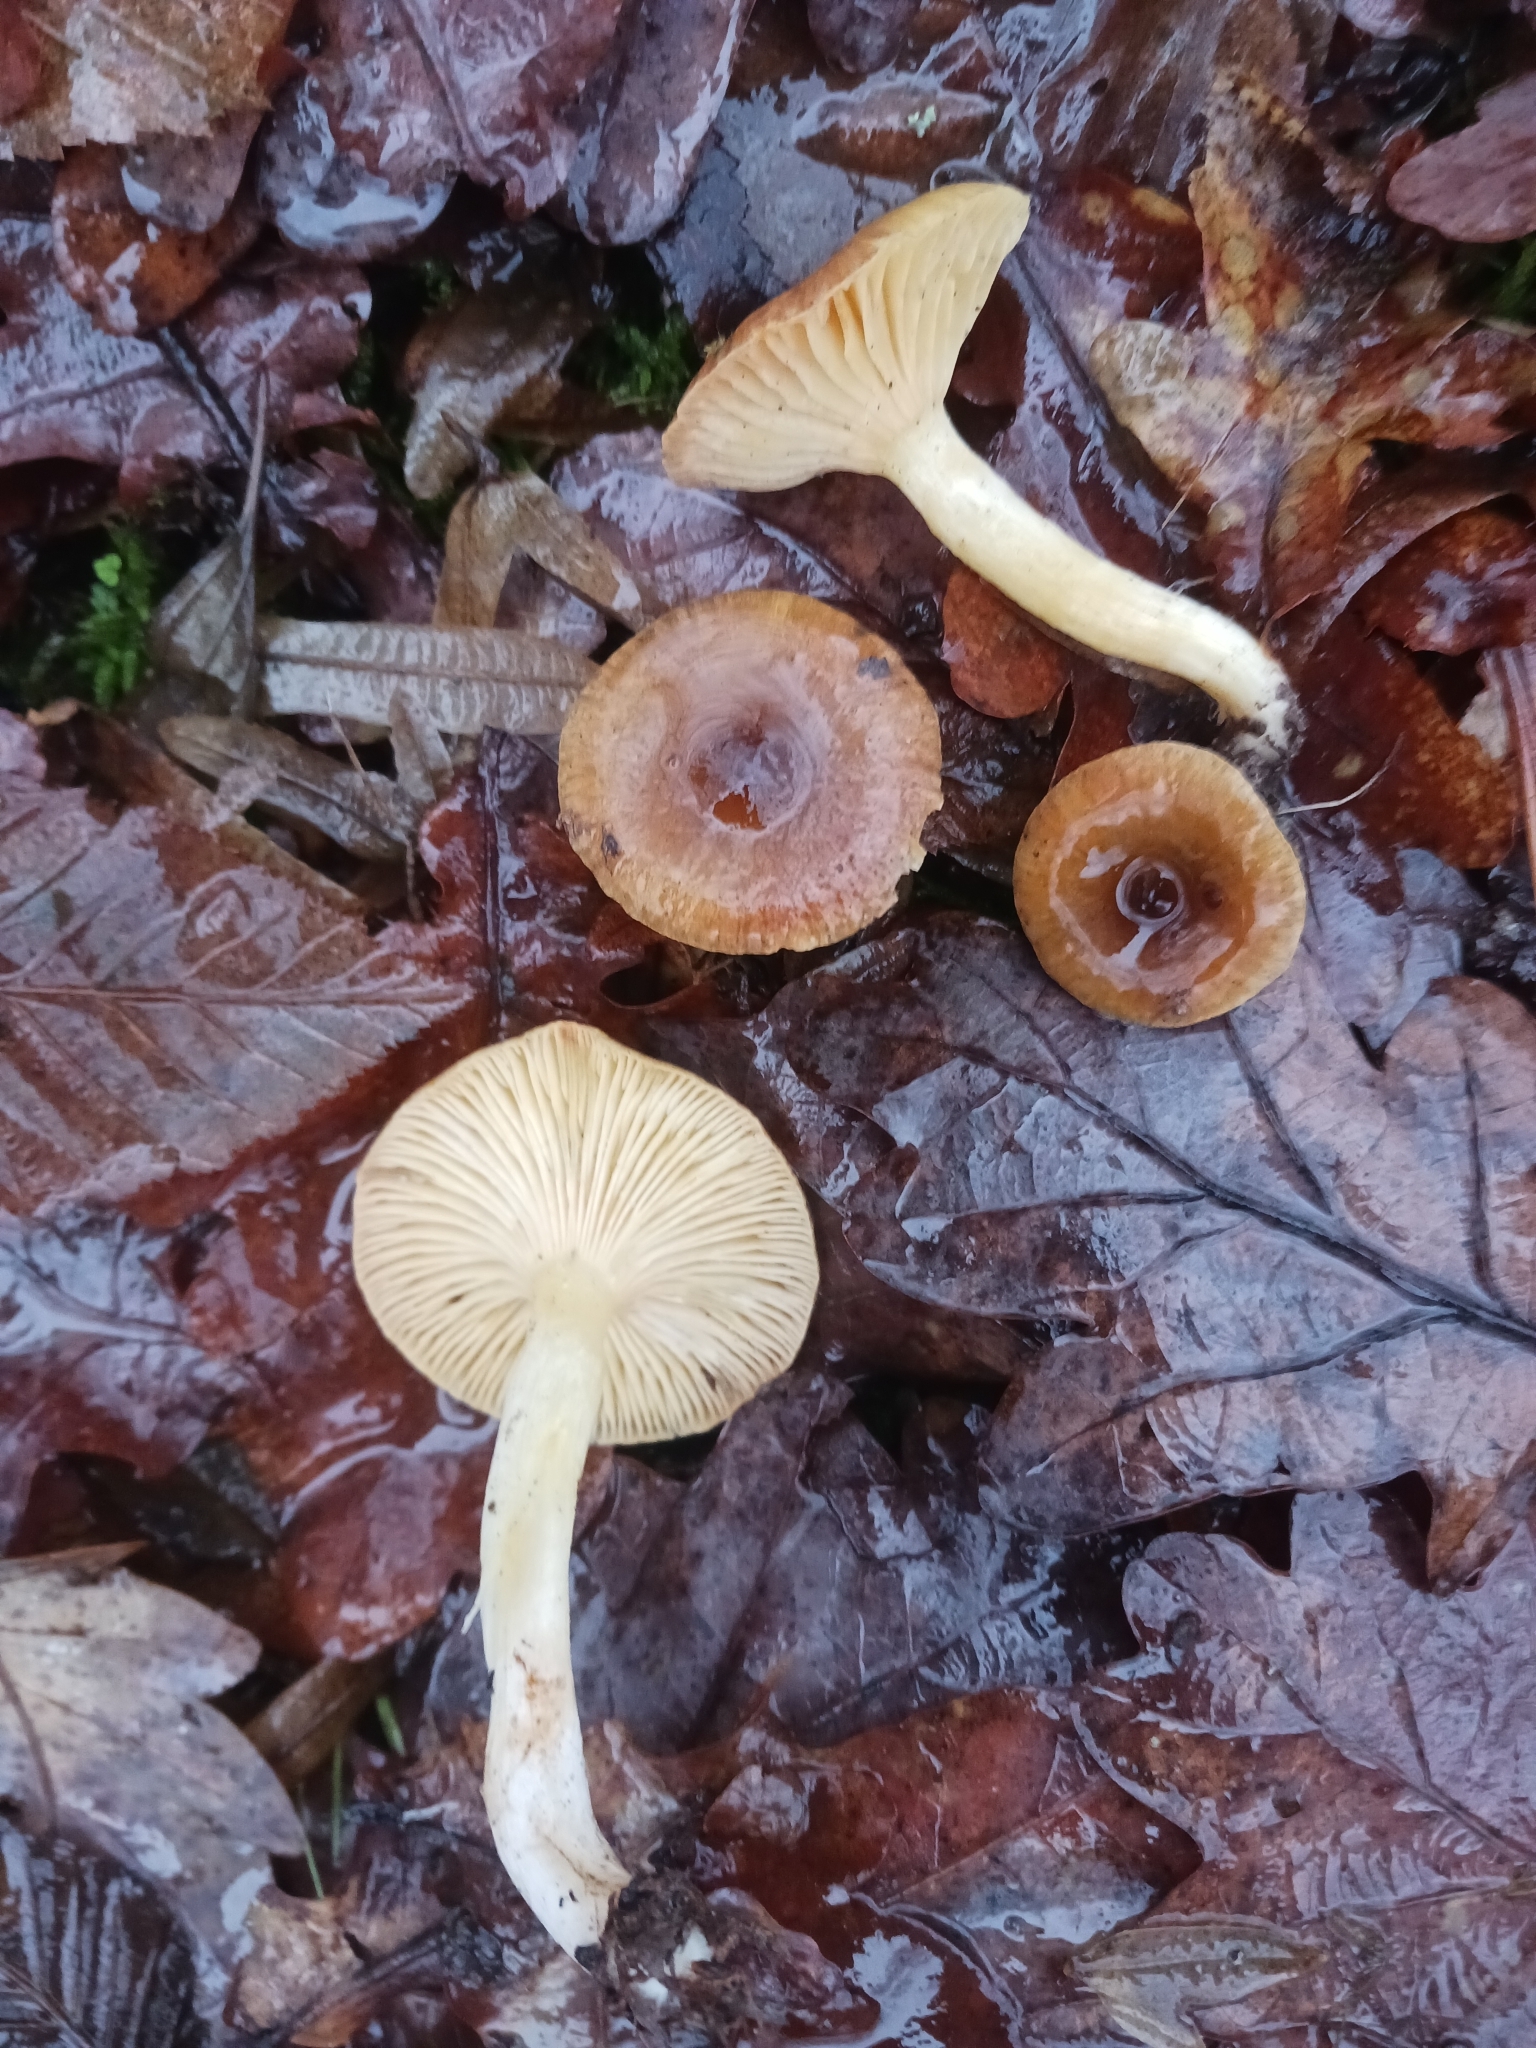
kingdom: Fungi
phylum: Basidiomycota
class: Agaricomycetes
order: Agaricales
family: Hygrophoraceae
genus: Hygrophorus
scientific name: Hygrophorus hypothejus
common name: Herald of winter
